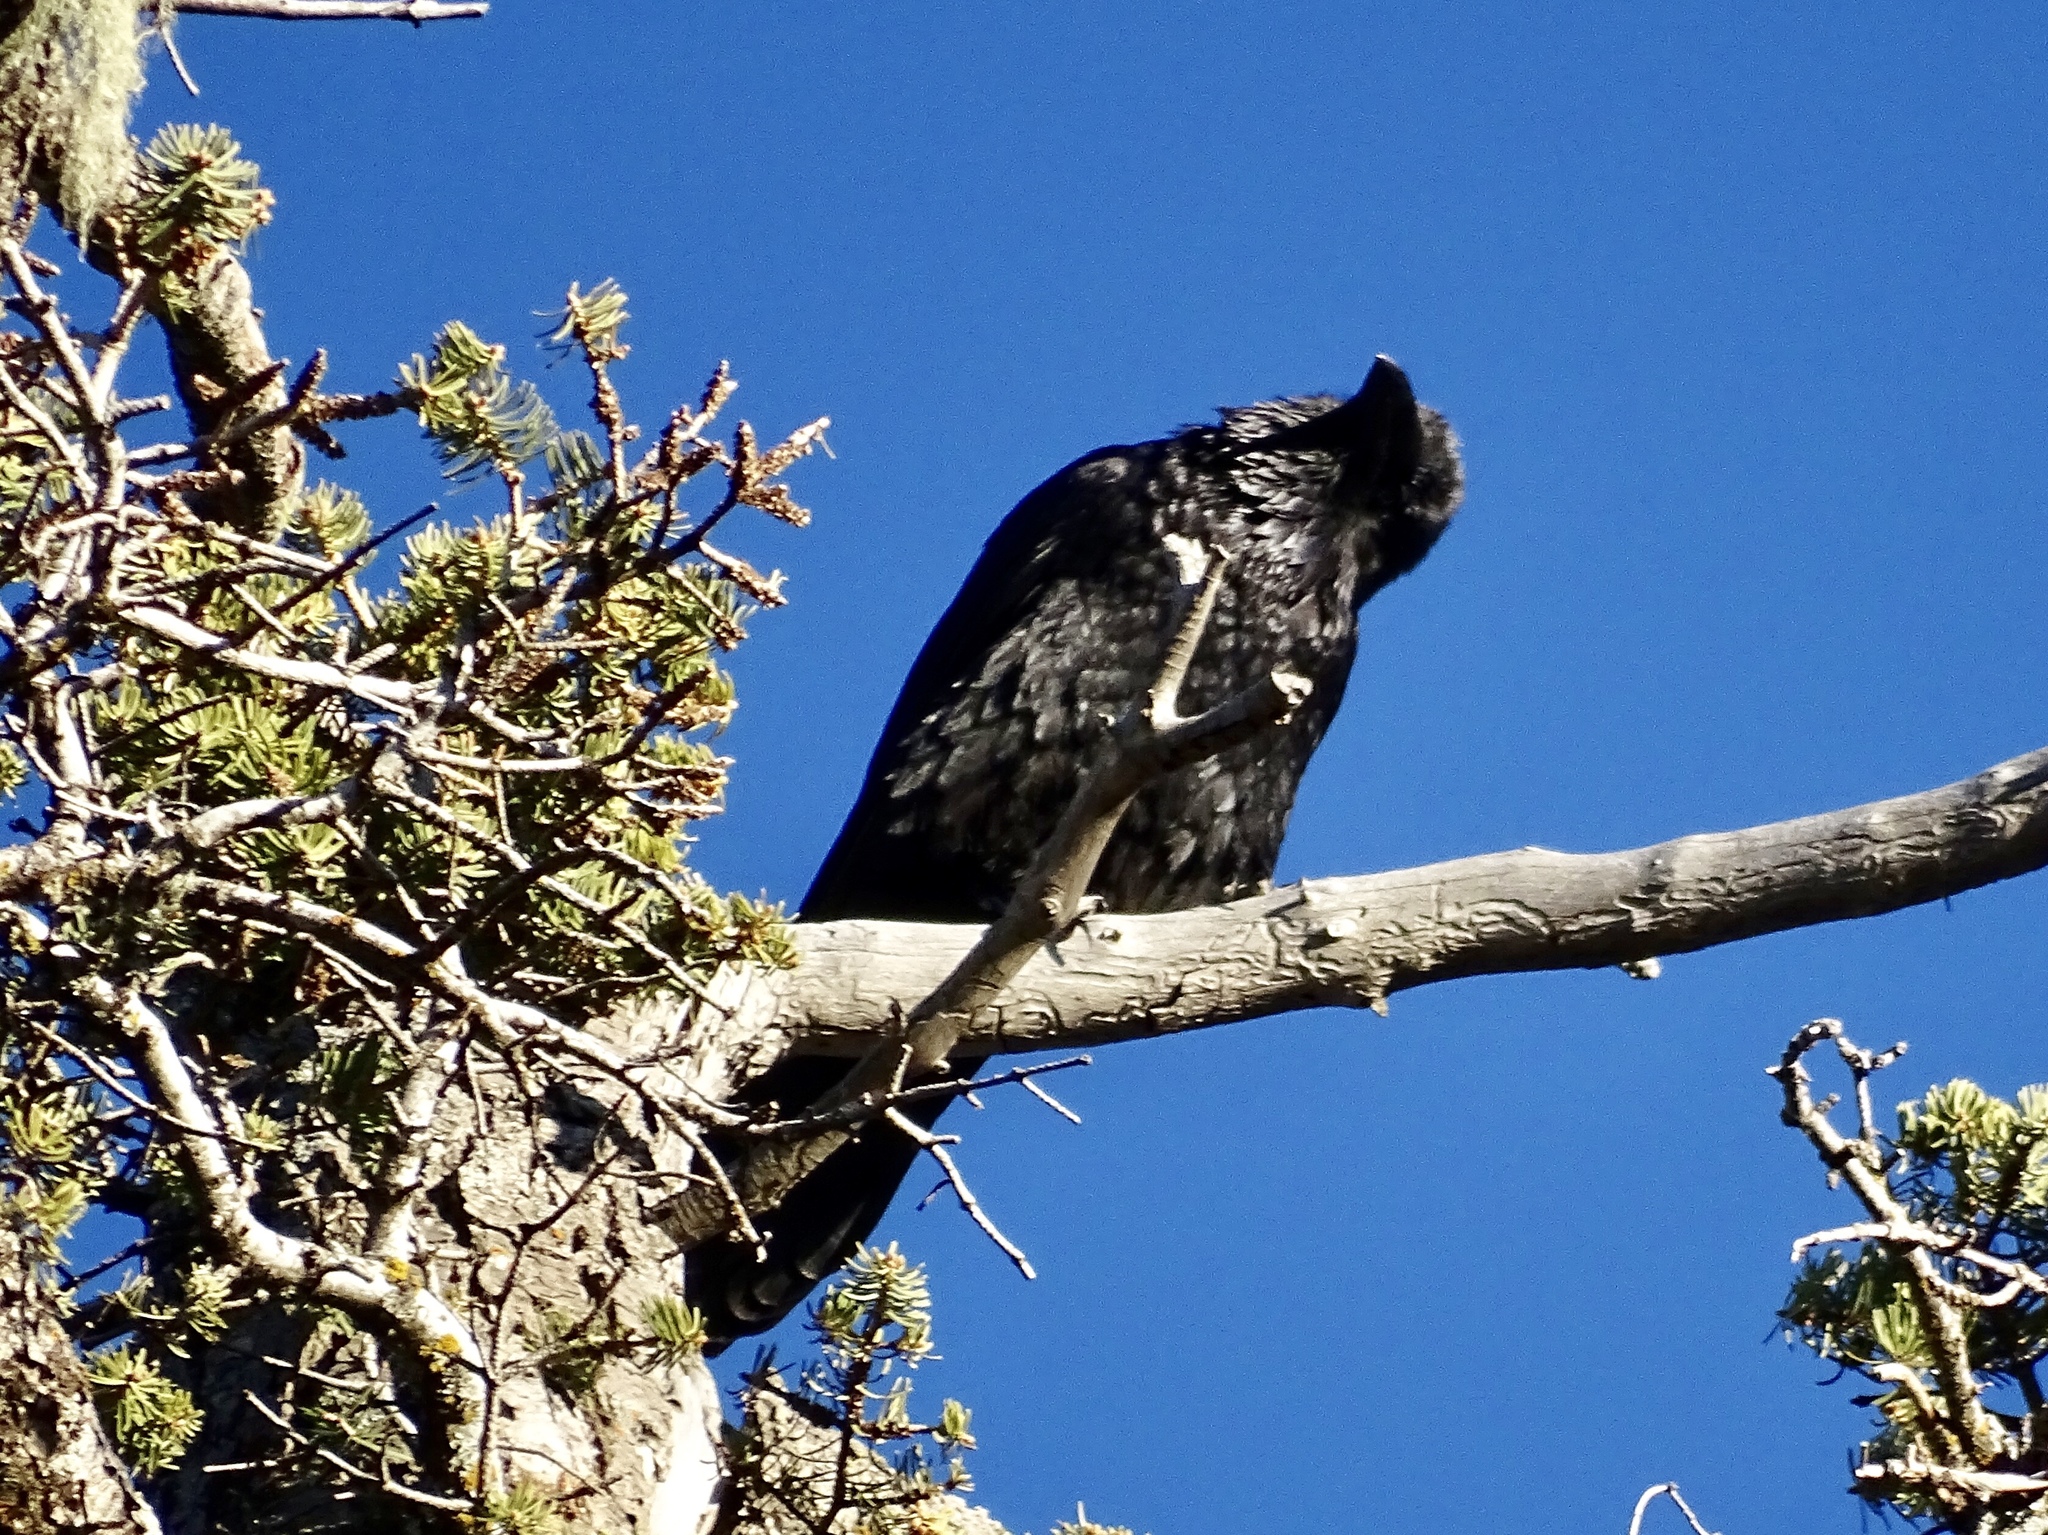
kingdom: Animalia
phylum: Chordata
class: Aves
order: Passeriformes
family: Corvidae
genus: Corvus
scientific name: Corvus corax
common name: Common raven
